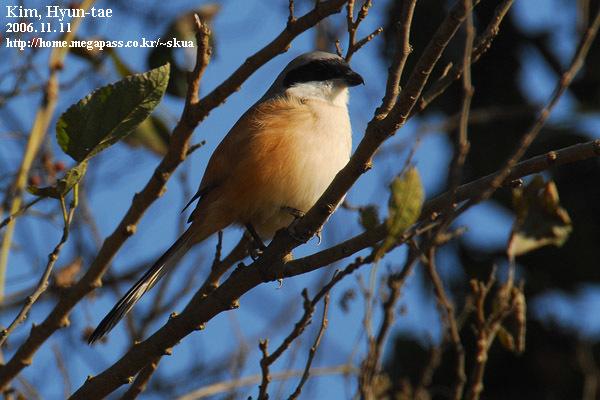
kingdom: Animalia
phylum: Chordata
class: Aves
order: Passeriformes
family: Laniidae
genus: Lanius
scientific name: Lanius schach
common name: Long-tailed shrike
